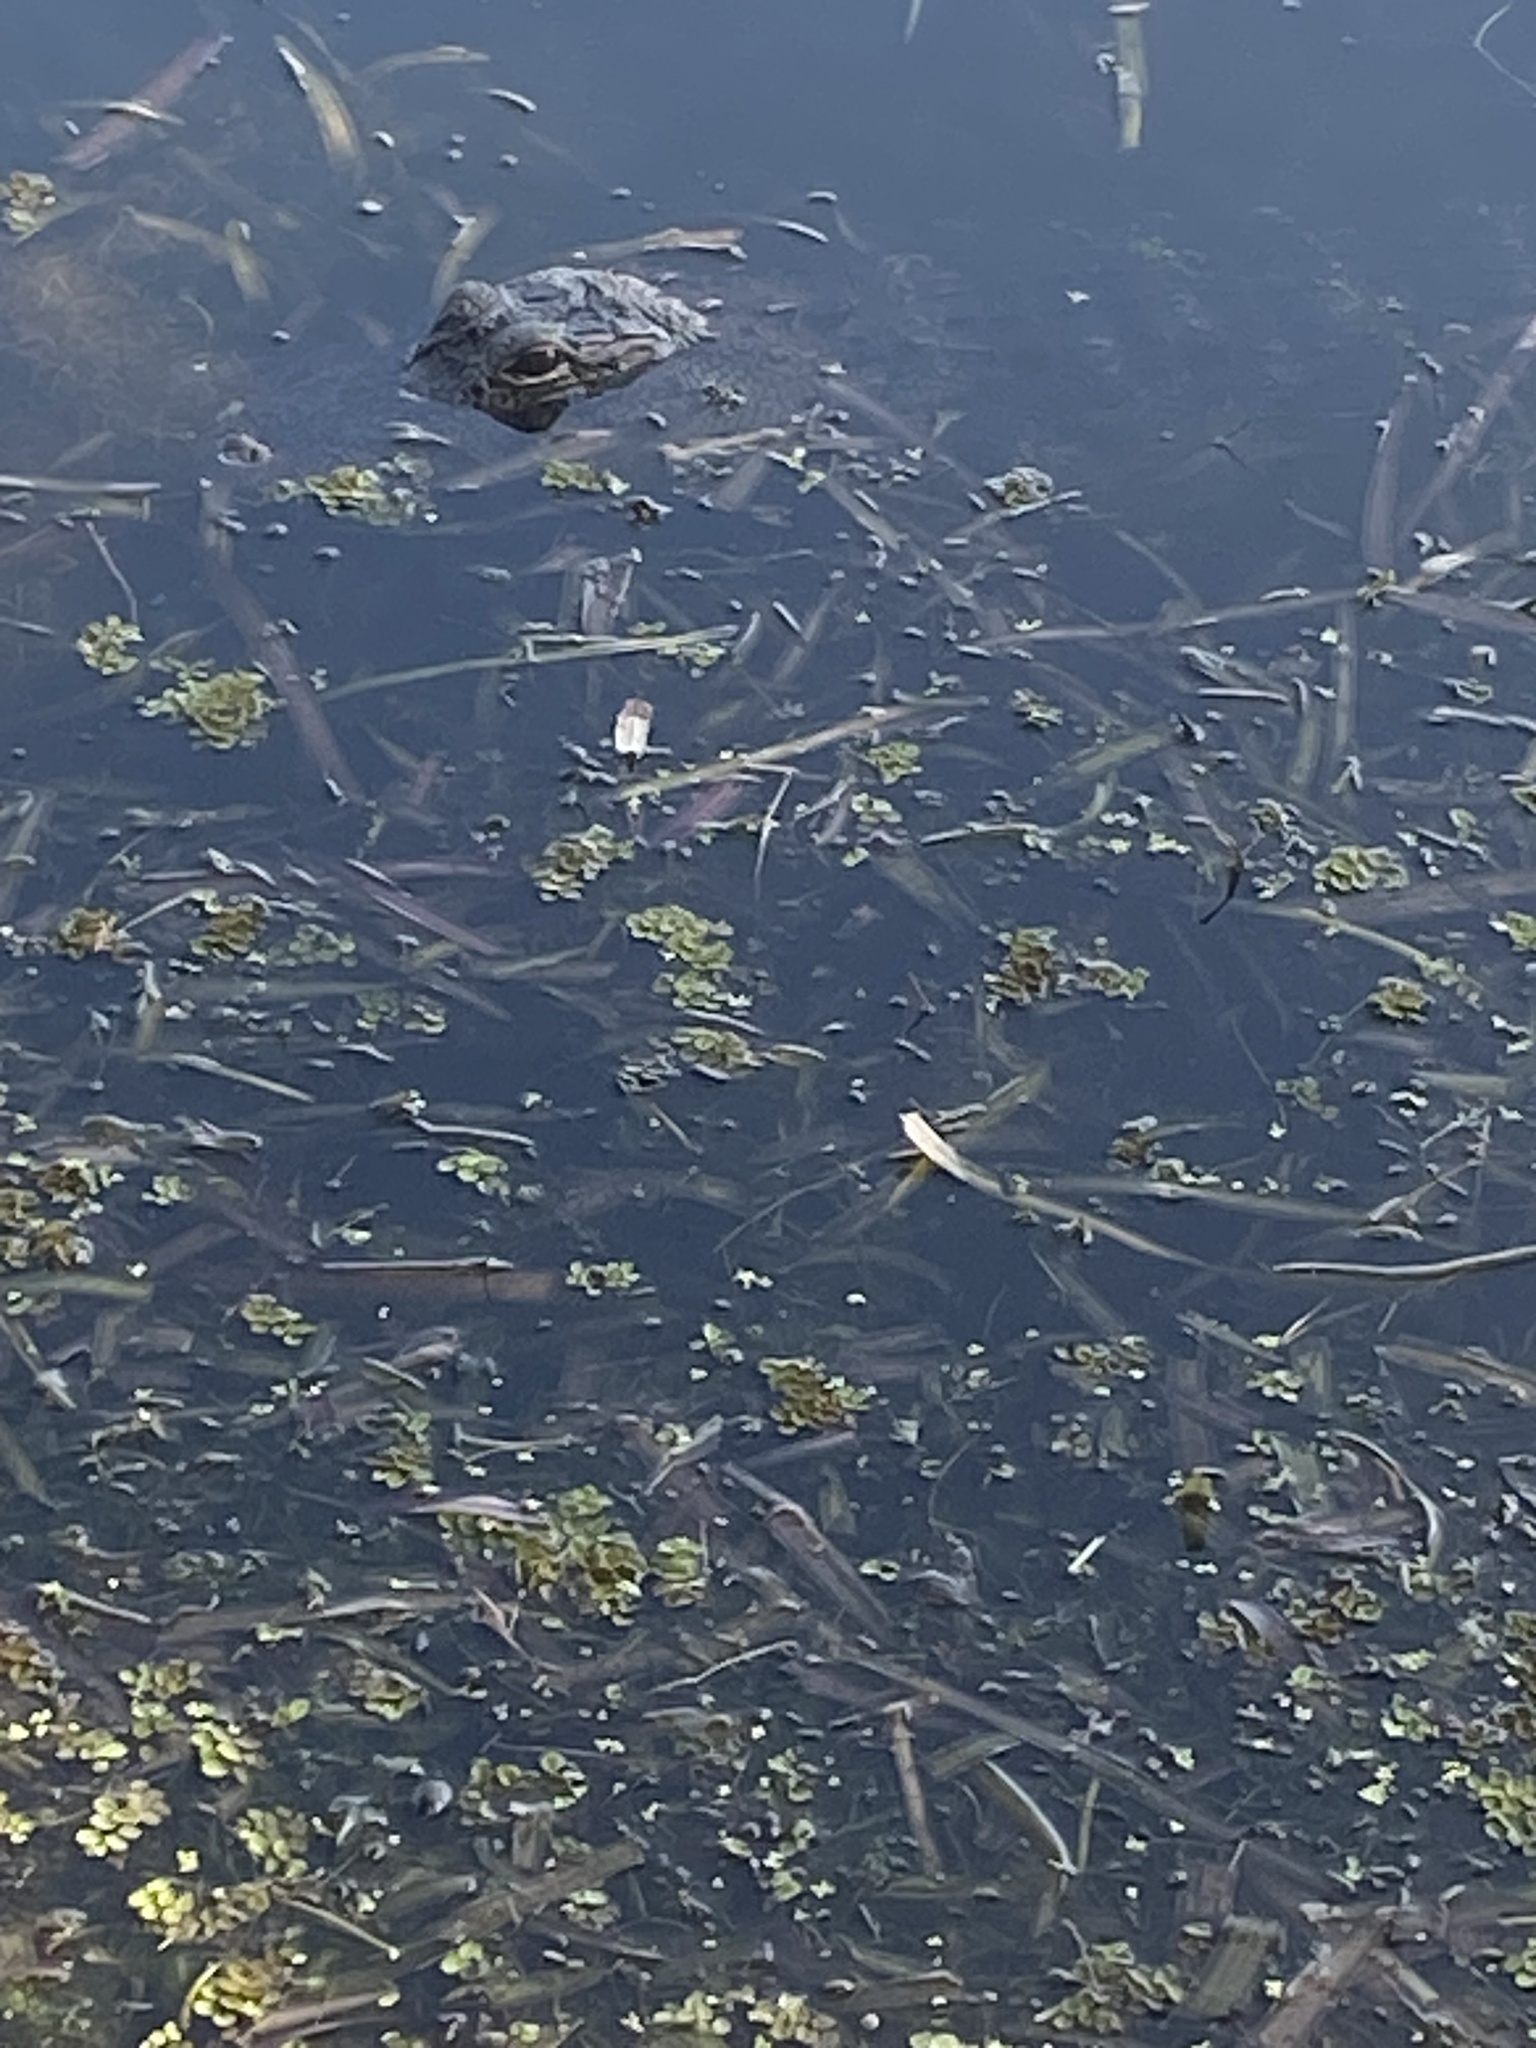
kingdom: Animalia
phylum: Chordata
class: Crocodylia
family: Alligatoridae
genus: Alligator
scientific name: Alligator mississippiensis
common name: American alligator
